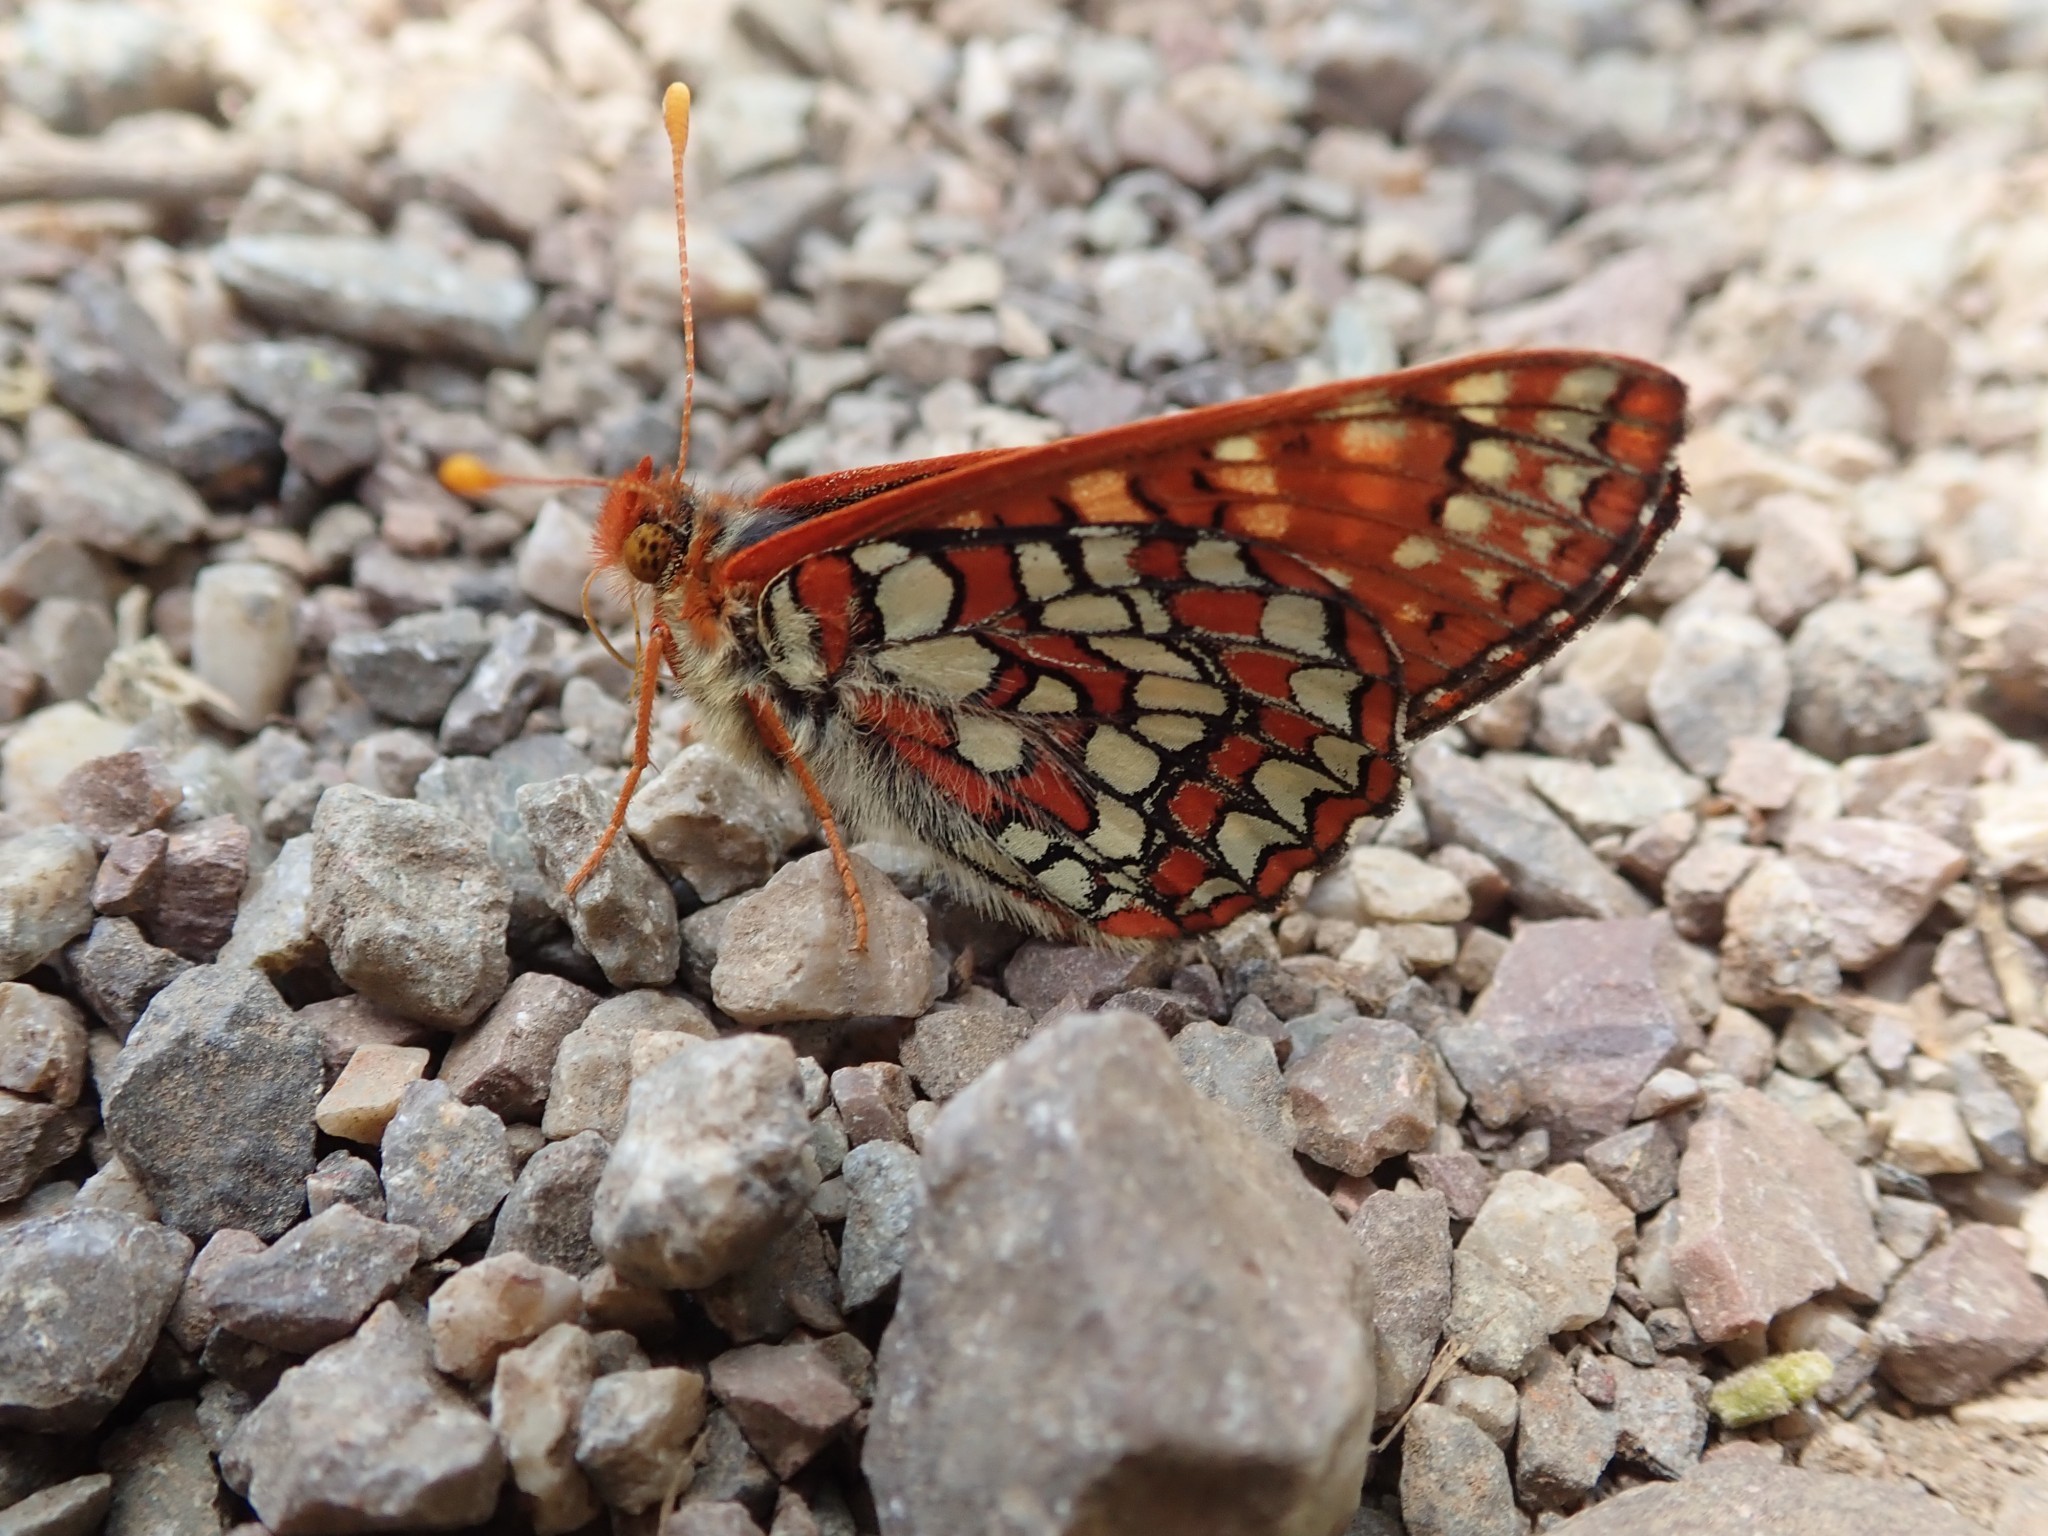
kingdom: Animalia
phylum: Arthropoda
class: Insecta
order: Lepidoptera
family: Nymphalidae
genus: Occidryas
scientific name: Occidryas chalcedona
